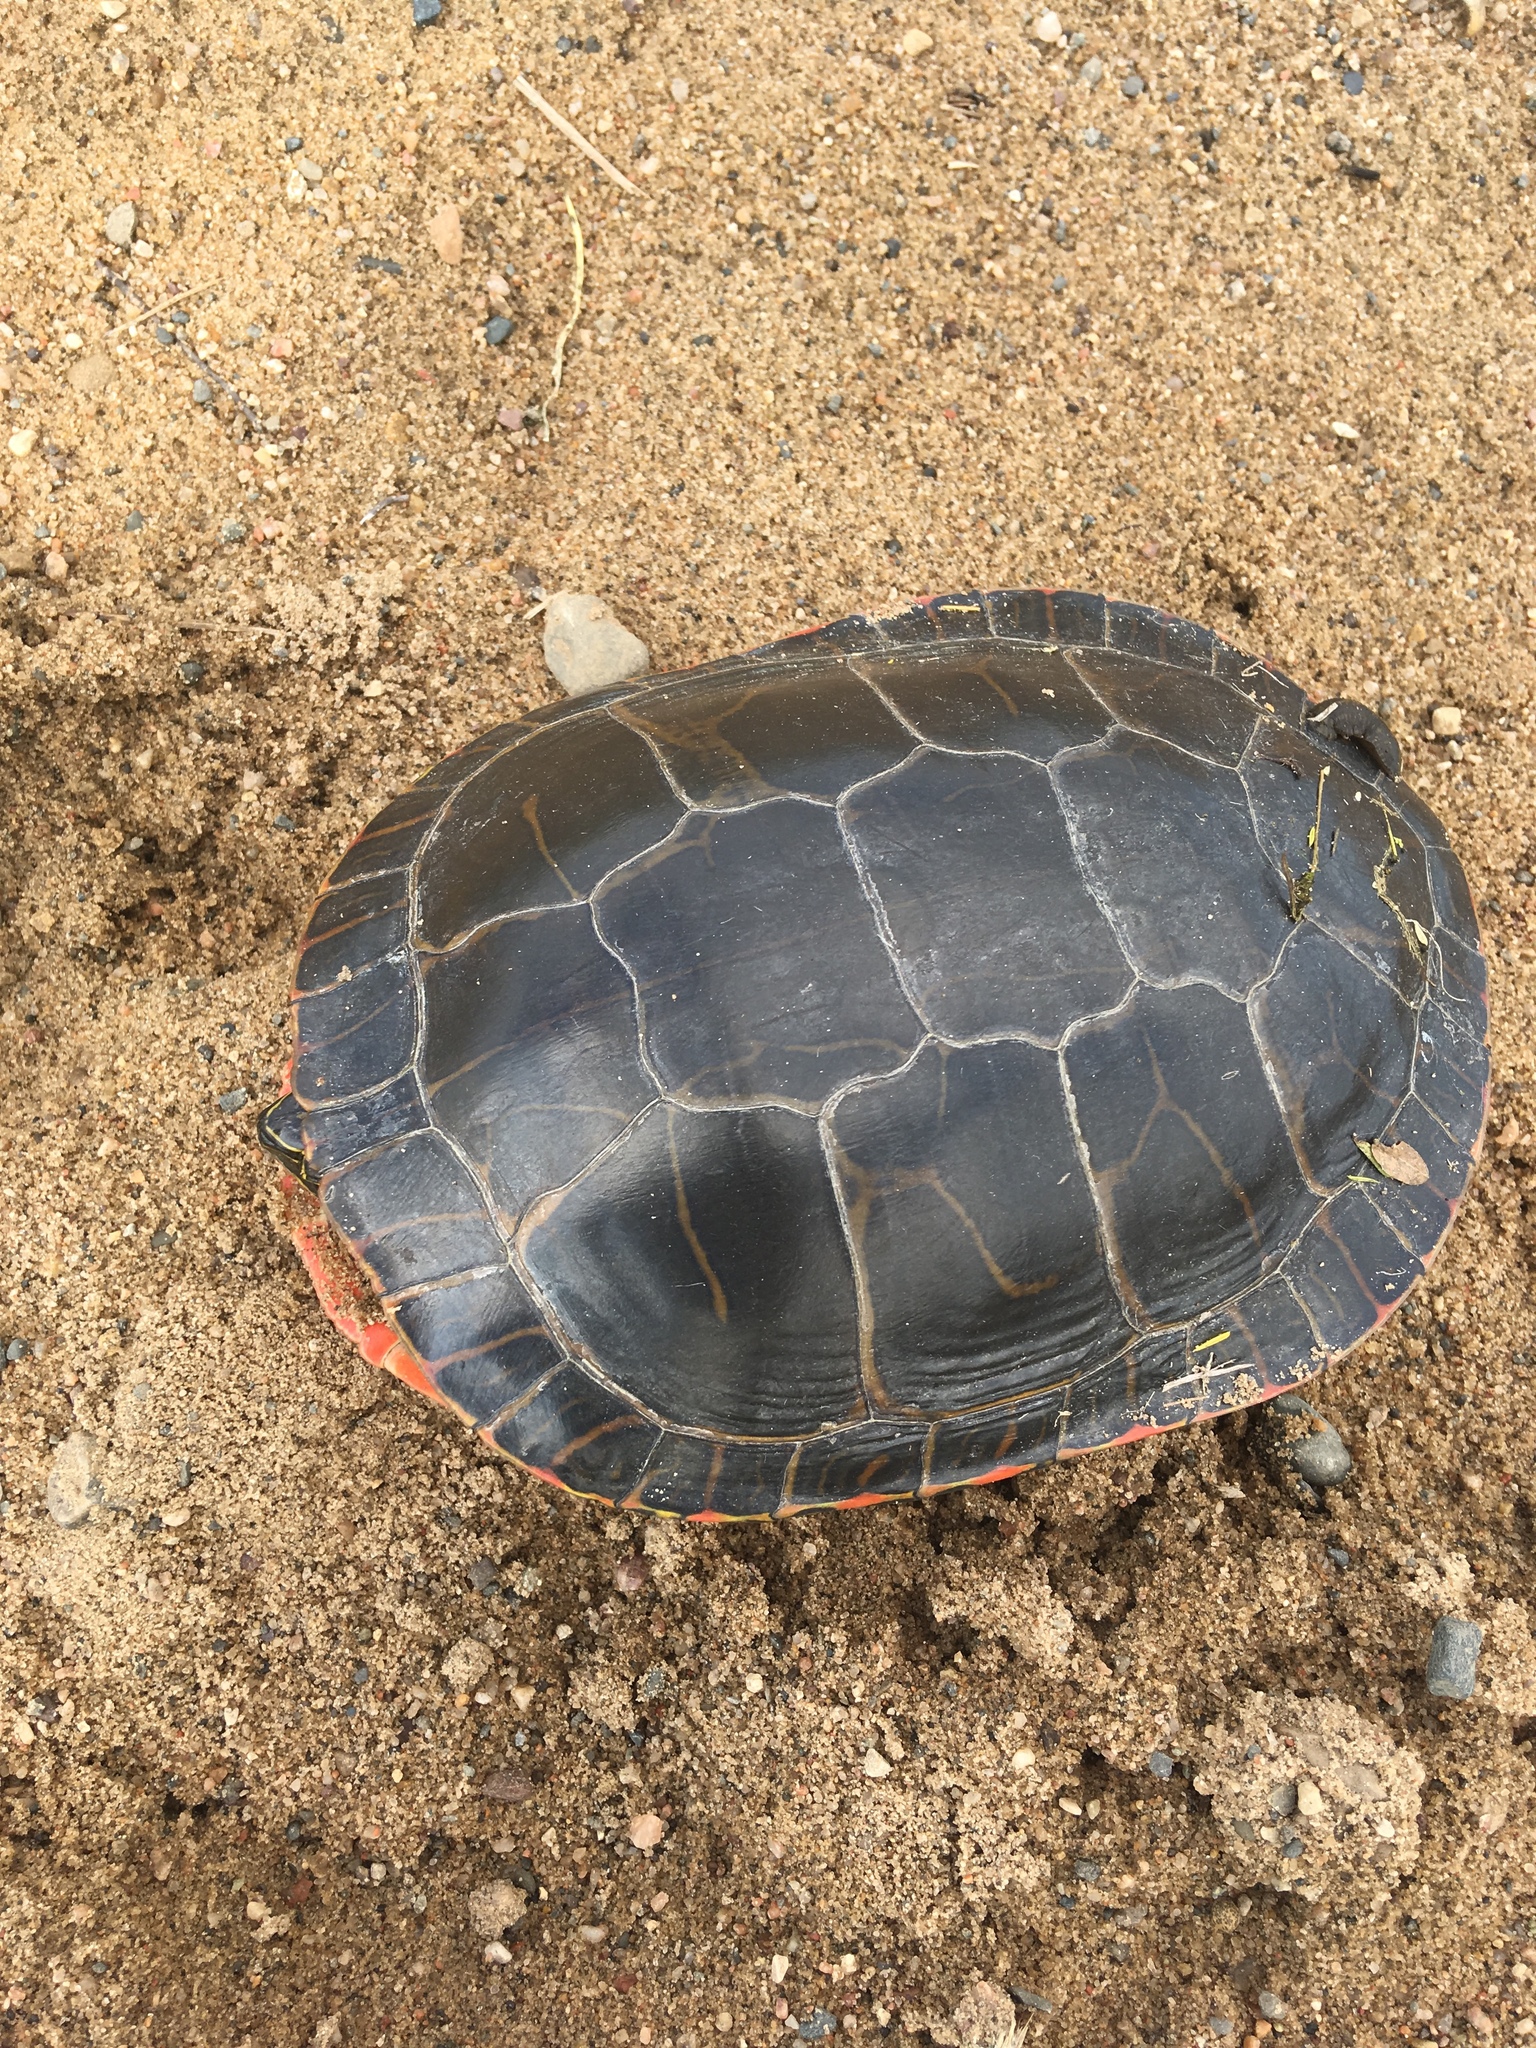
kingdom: Animalia
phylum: Chordata
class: Testudines
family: Emydidae
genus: Chrysemys
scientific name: Chrysemys picta
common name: Painted turtle
